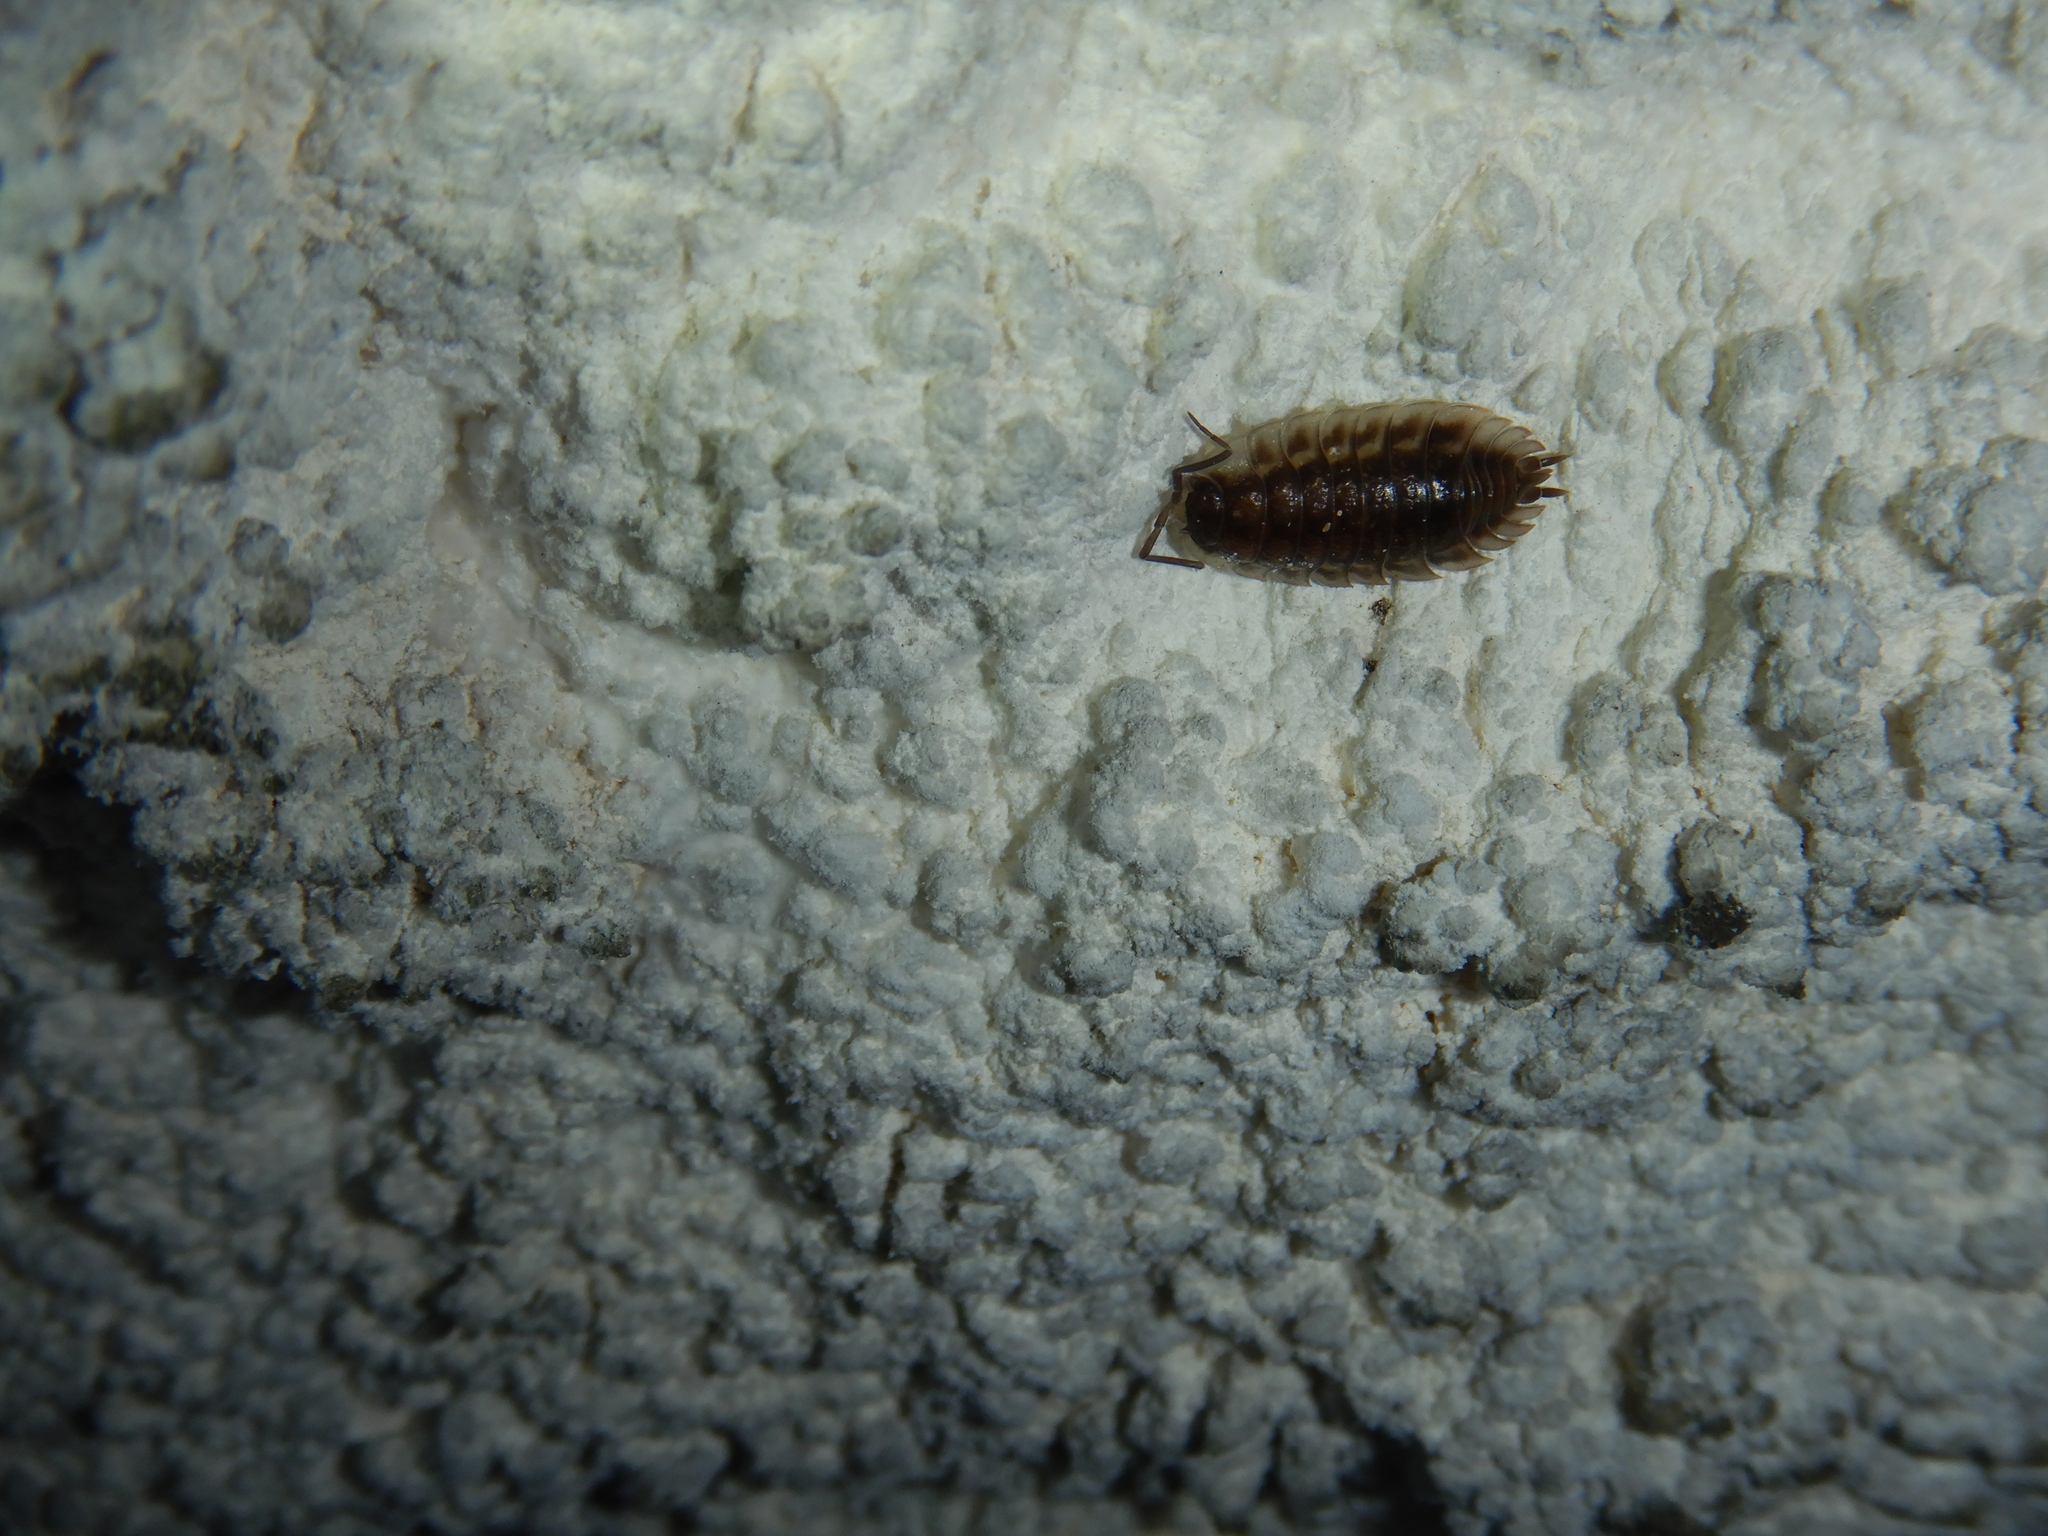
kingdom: Animalia
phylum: Arthropoda
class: Malacostraca
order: Isopoda
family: Oniscidae
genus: Oniscus
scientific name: Oniscus asellus
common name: Common shiny woodlouse
